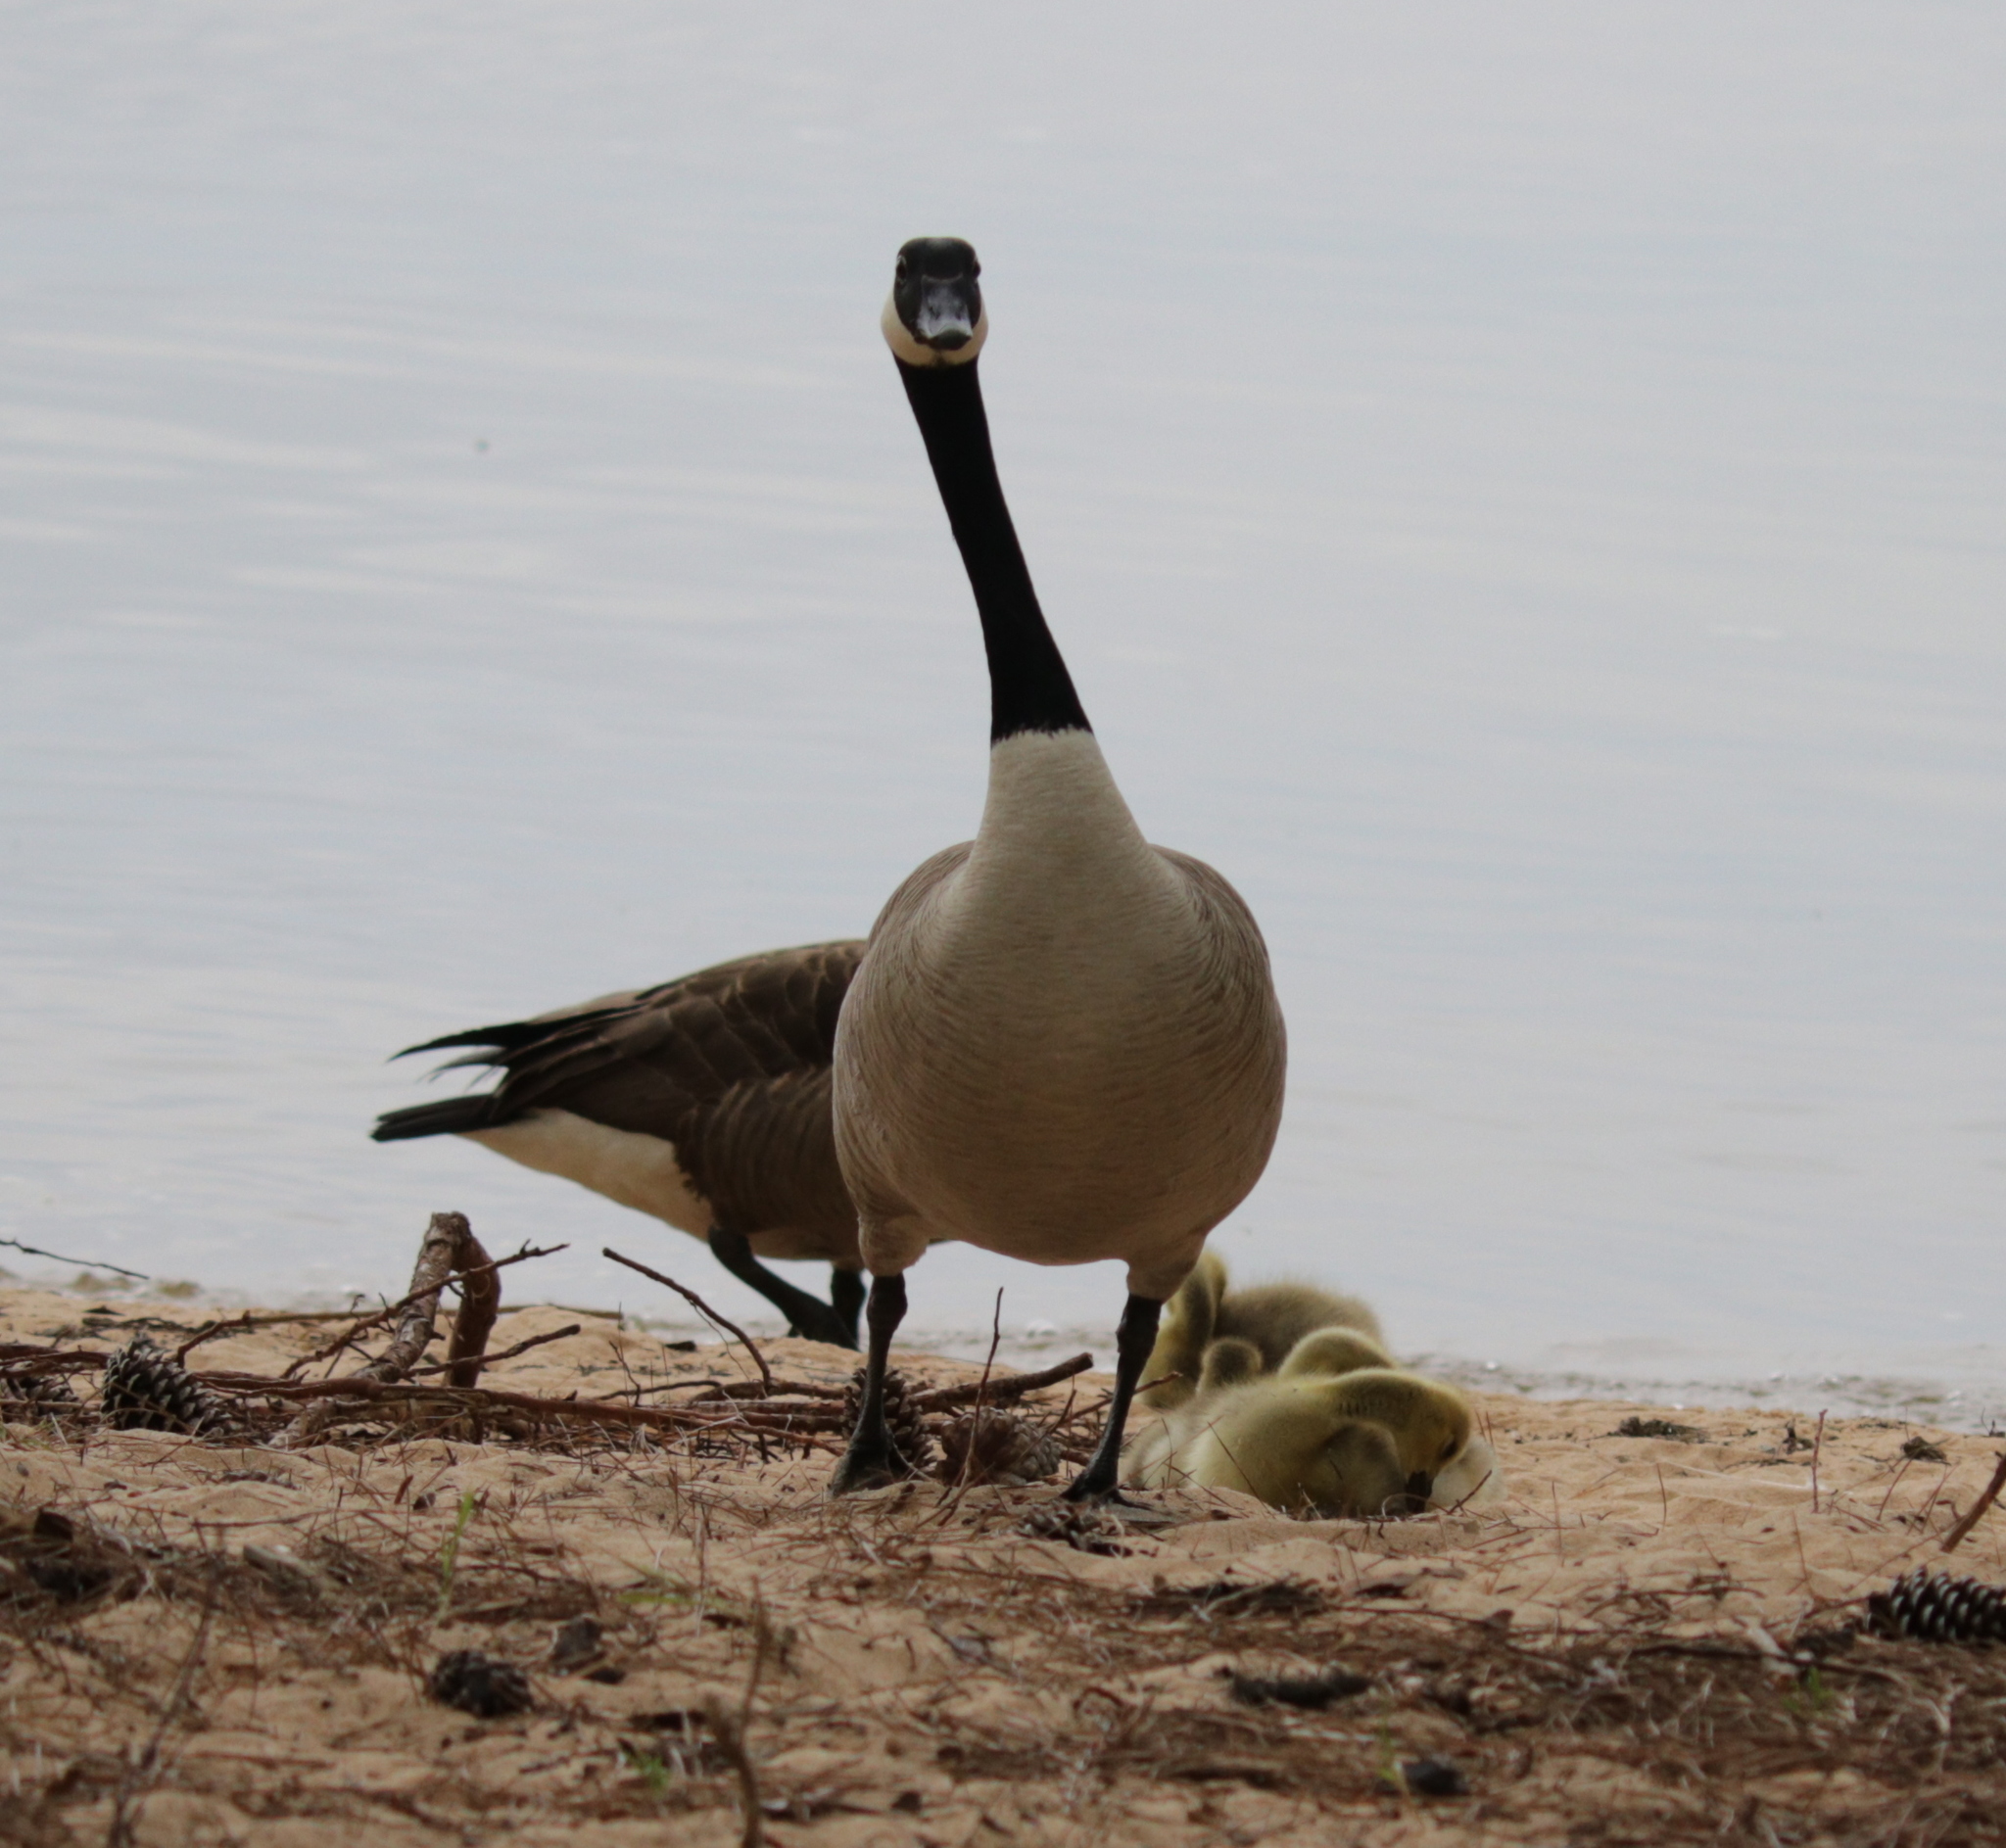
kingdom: Animalia
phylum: Chordata
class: Aves
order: Anseriformes
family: Anatidae
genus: Branta
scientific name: Branta canadensis
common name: Canada goose
